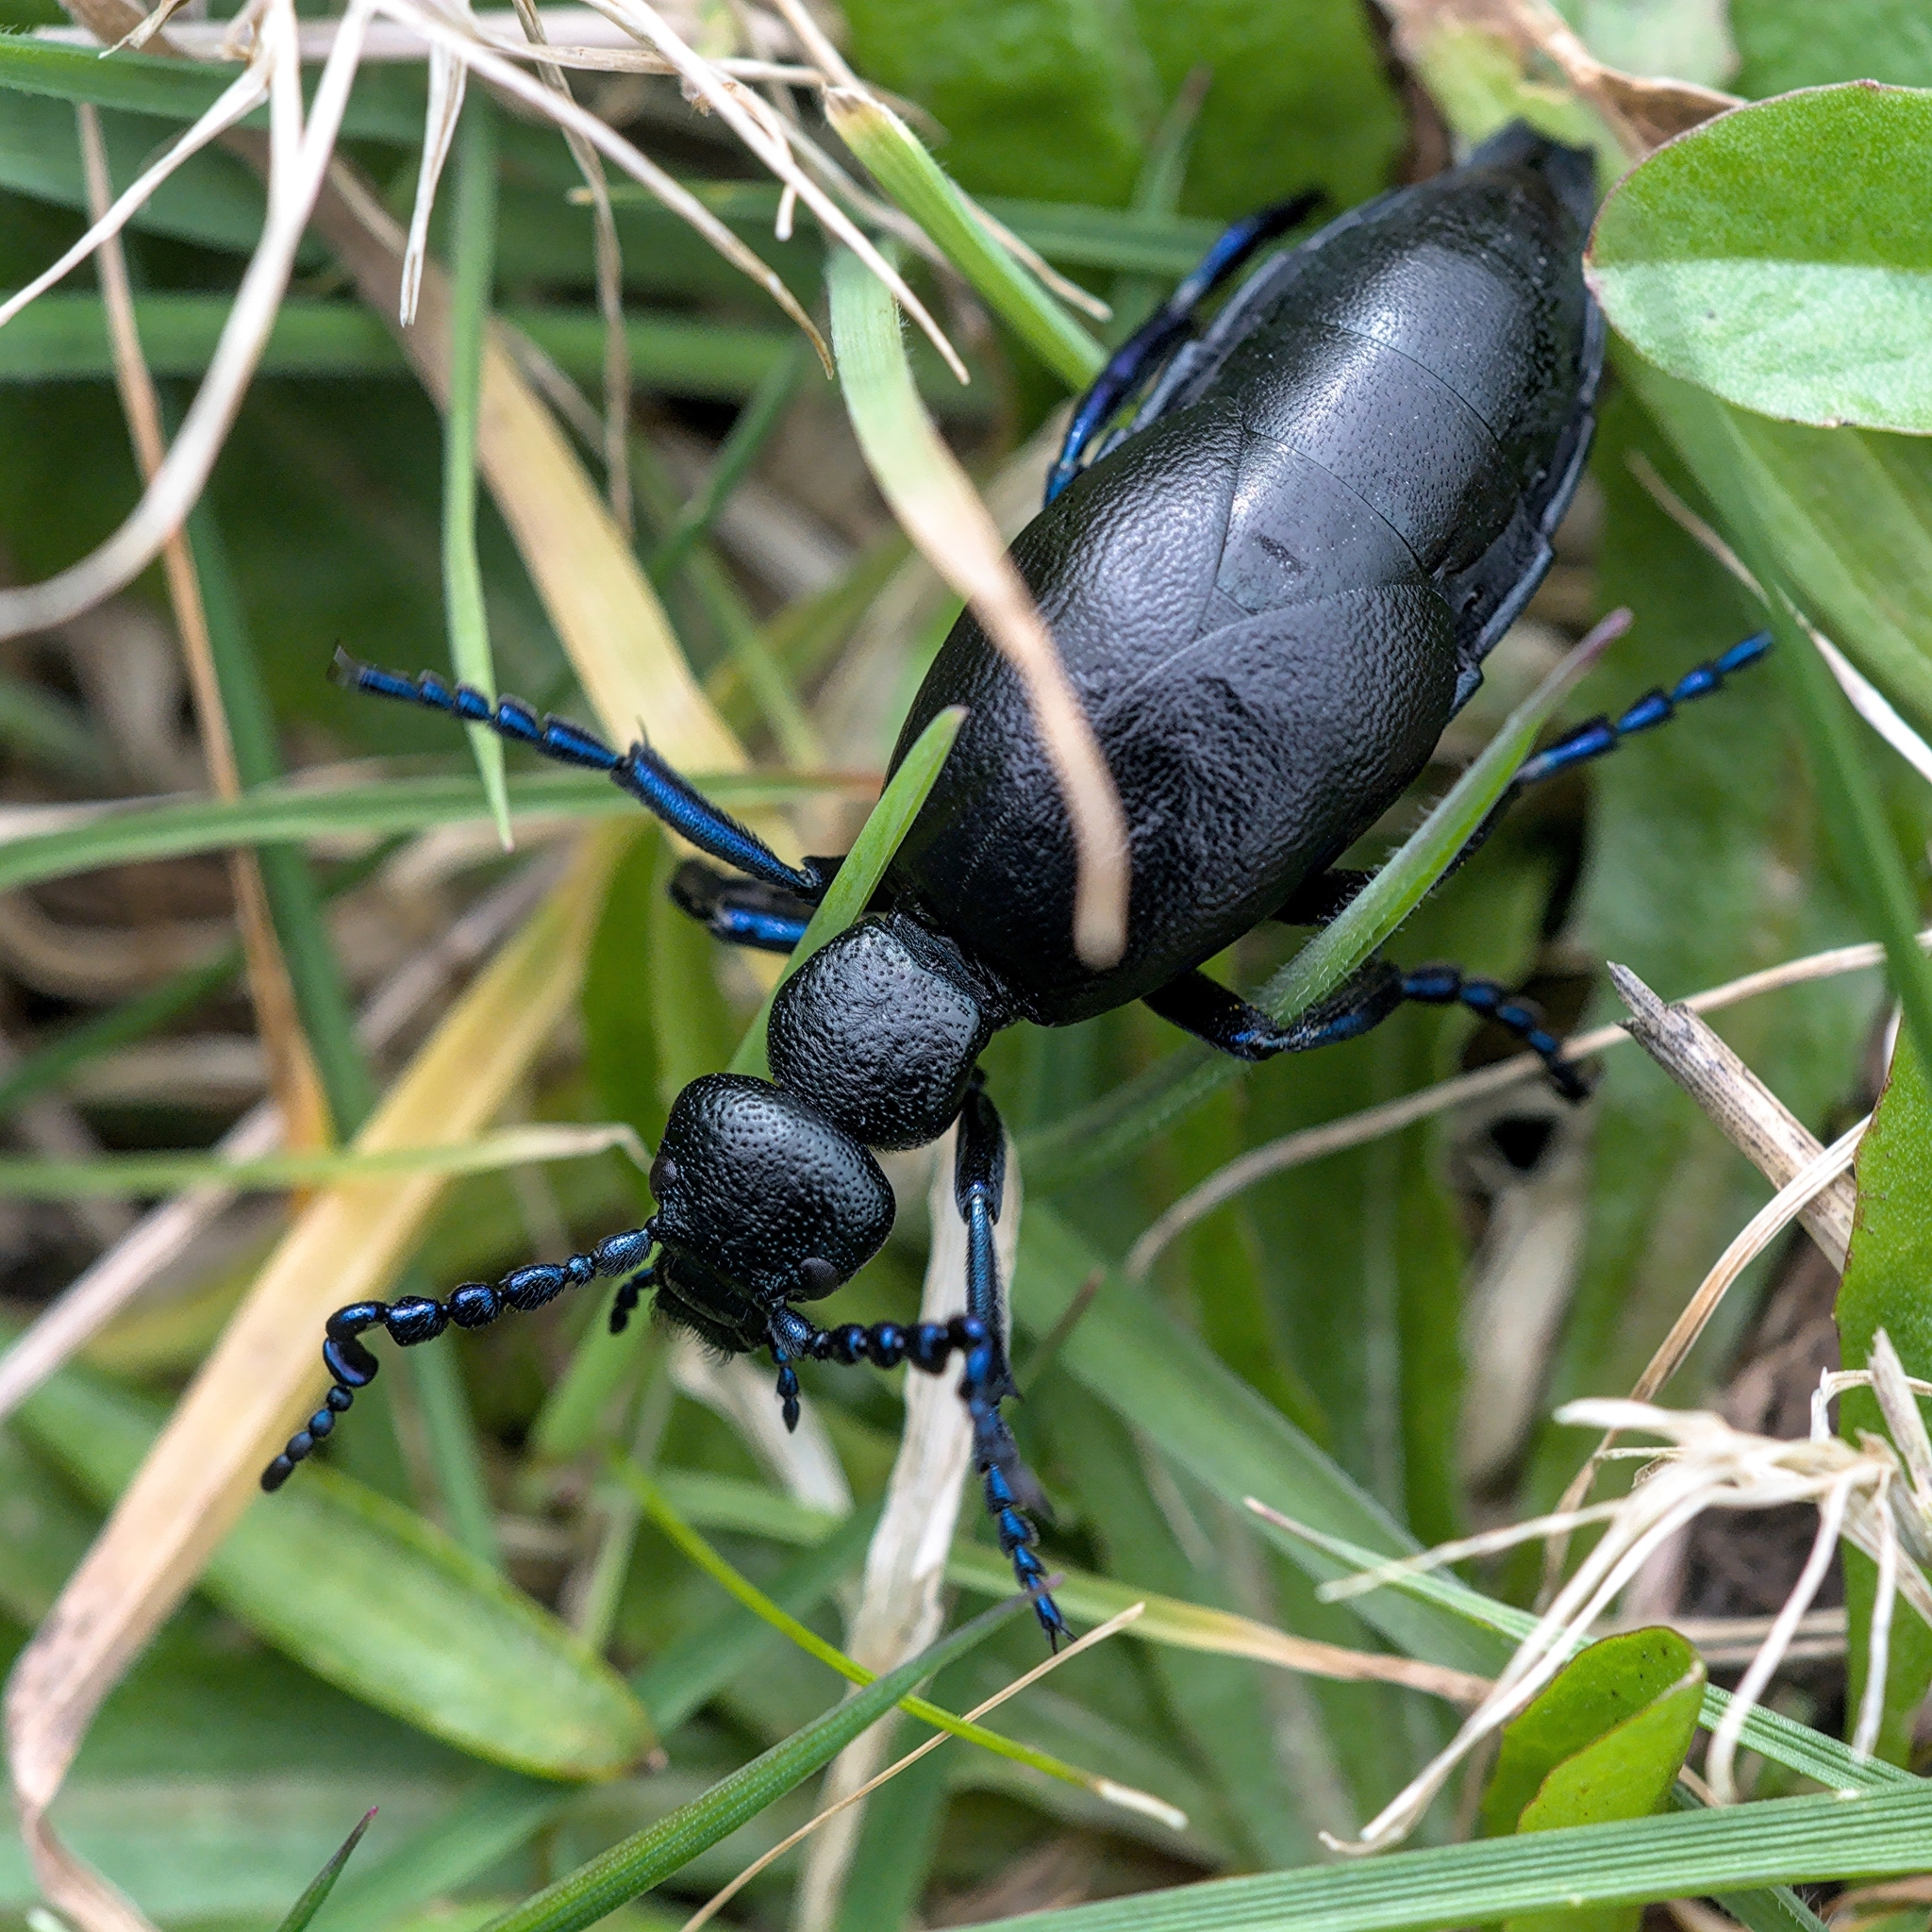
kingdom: Animalia
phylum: Arthropoda
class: Insecta
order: Coleoptera
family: Meloidae
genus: Meloe
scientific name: Meloe proscarabaeus
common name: Black oil-beetle
